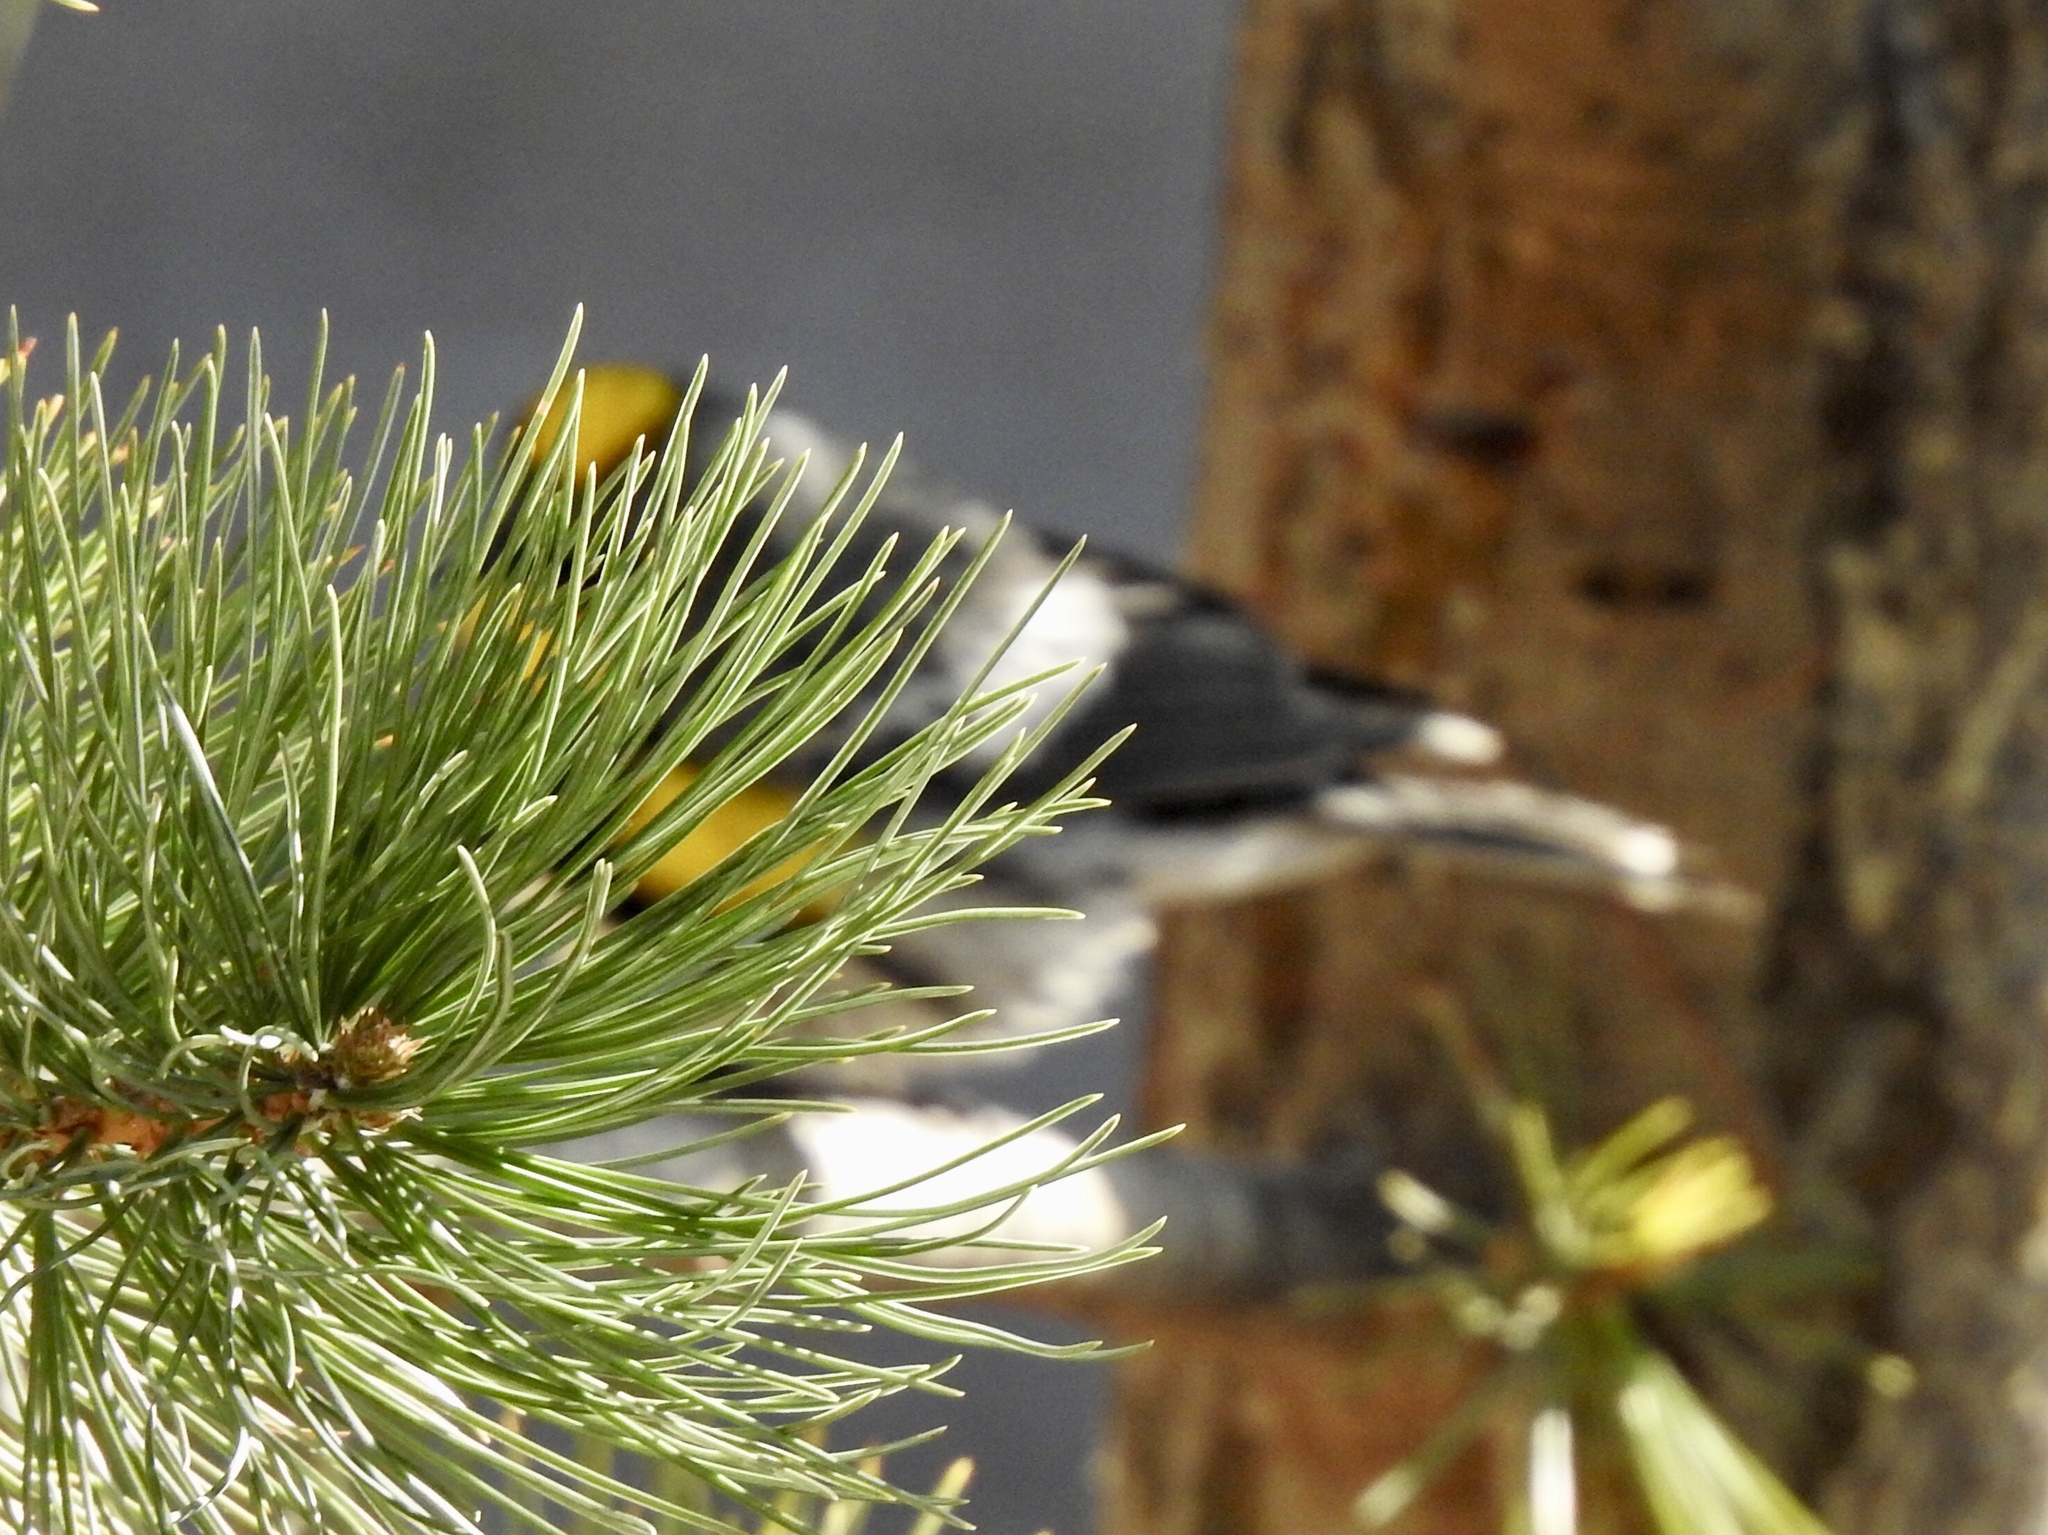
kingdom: Animalia
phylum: Chordata
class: Aves
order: Passeriformes
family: Parulidae
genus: Setophaga
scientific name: Setophaga coronata
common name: Myrtle warbler
